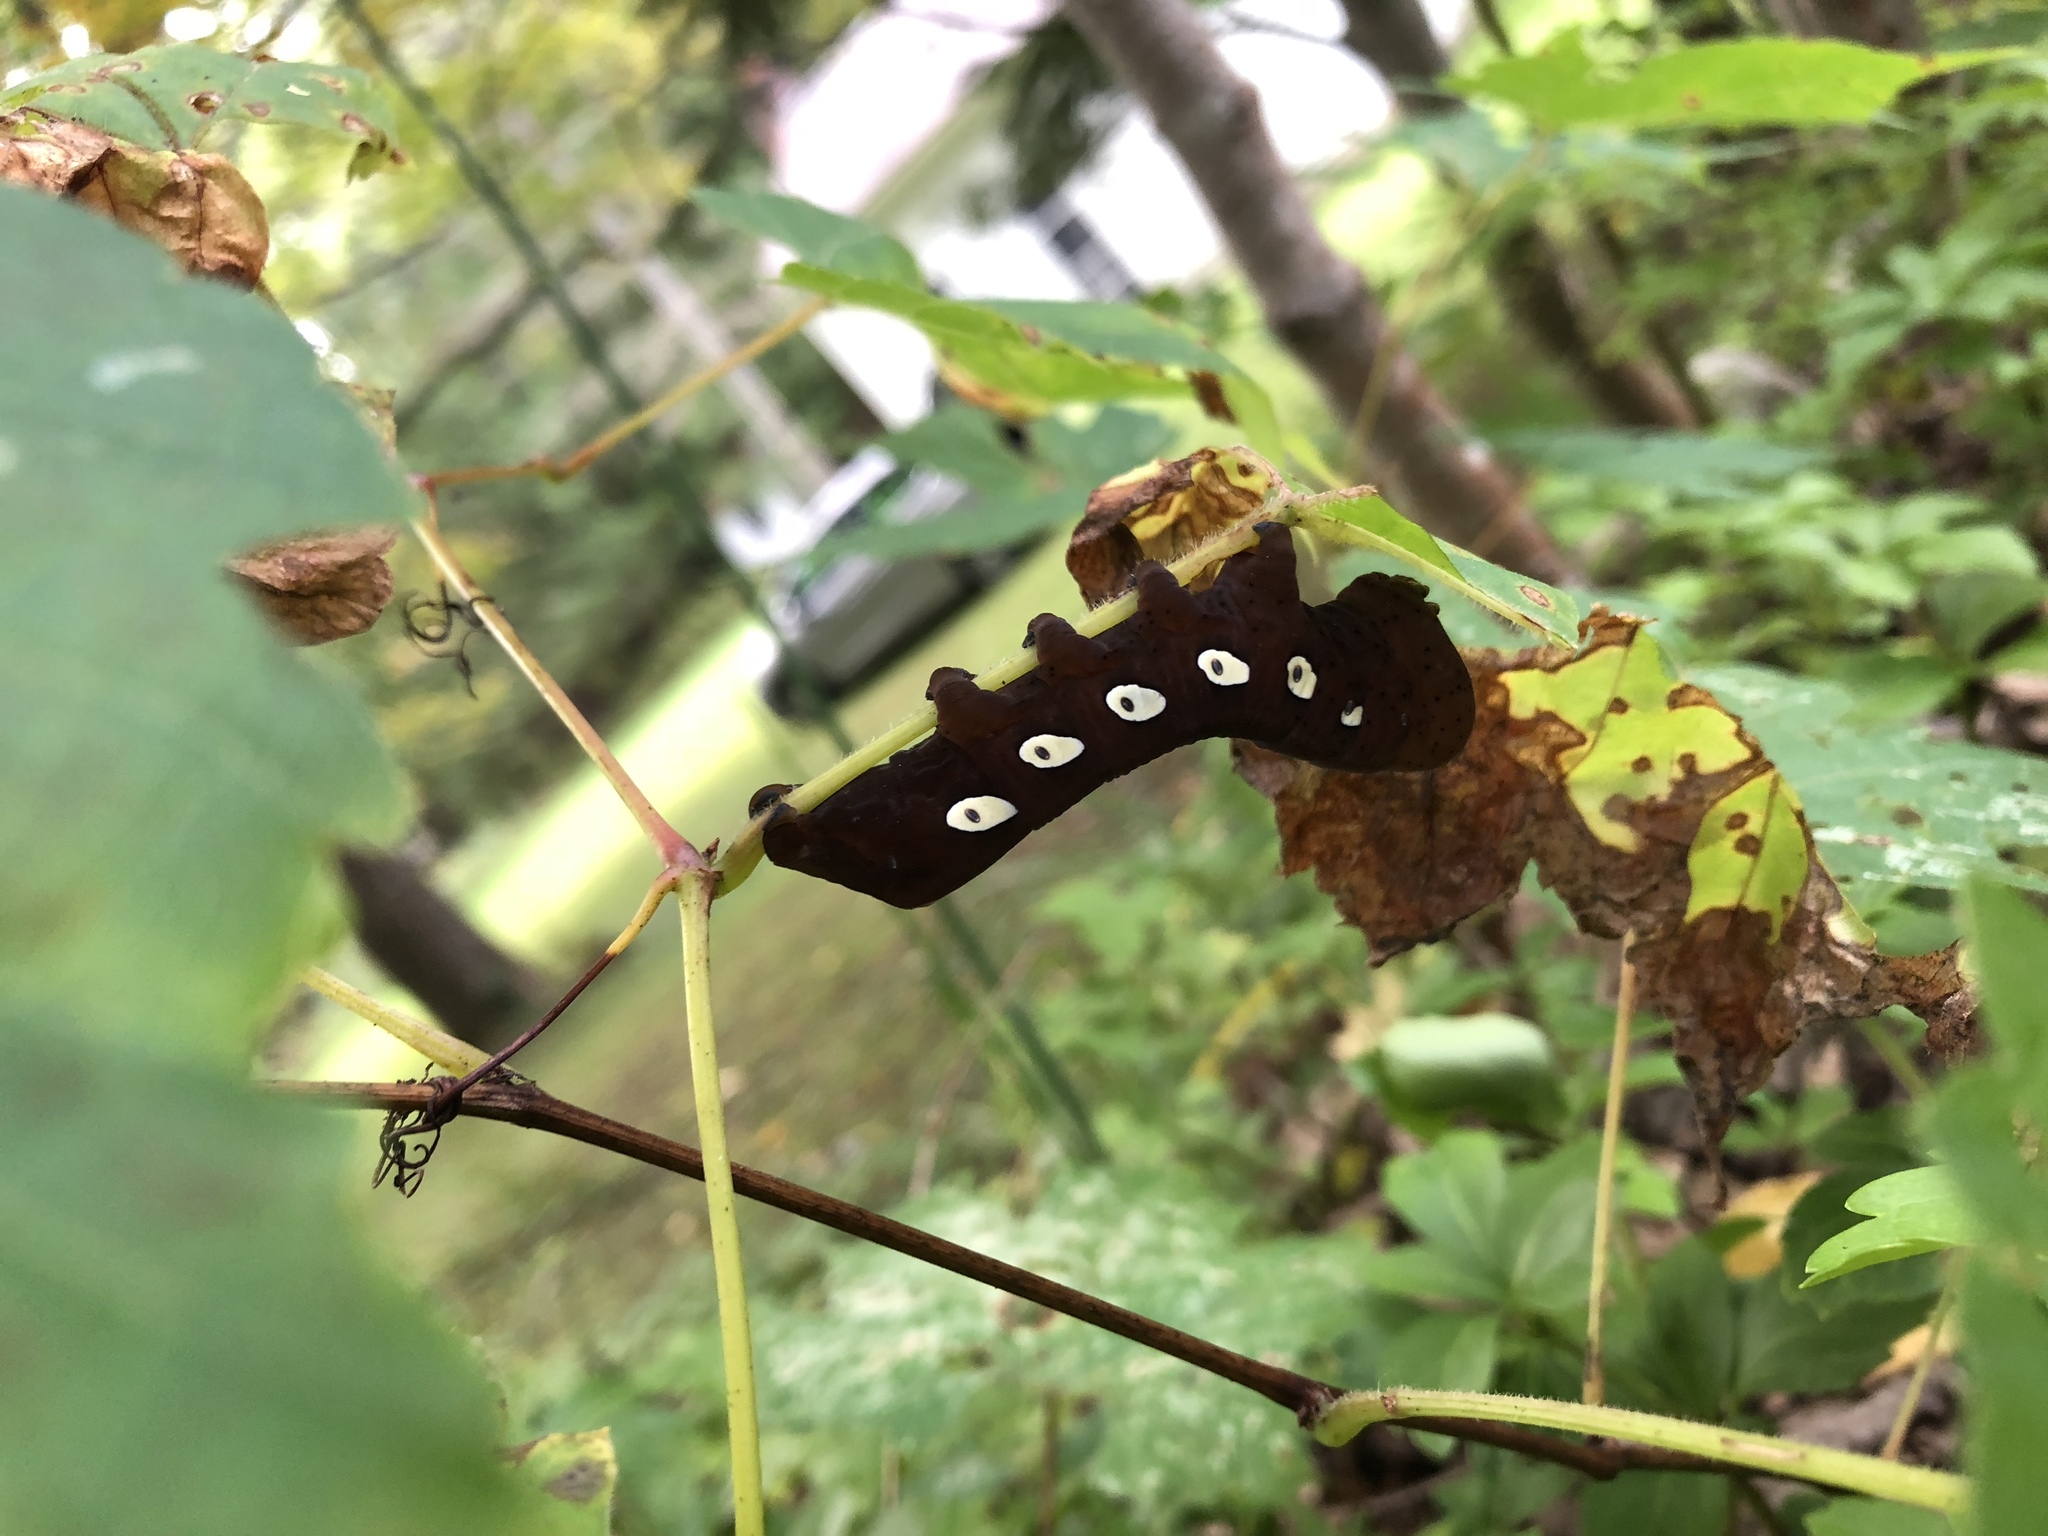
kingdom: Animalia
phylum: Arthropoda
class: Insecta
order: Lepidoptera
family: Sphingidae
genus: Eumorpha
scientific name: Eumorpha pandorus
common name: Pandora sphinx
